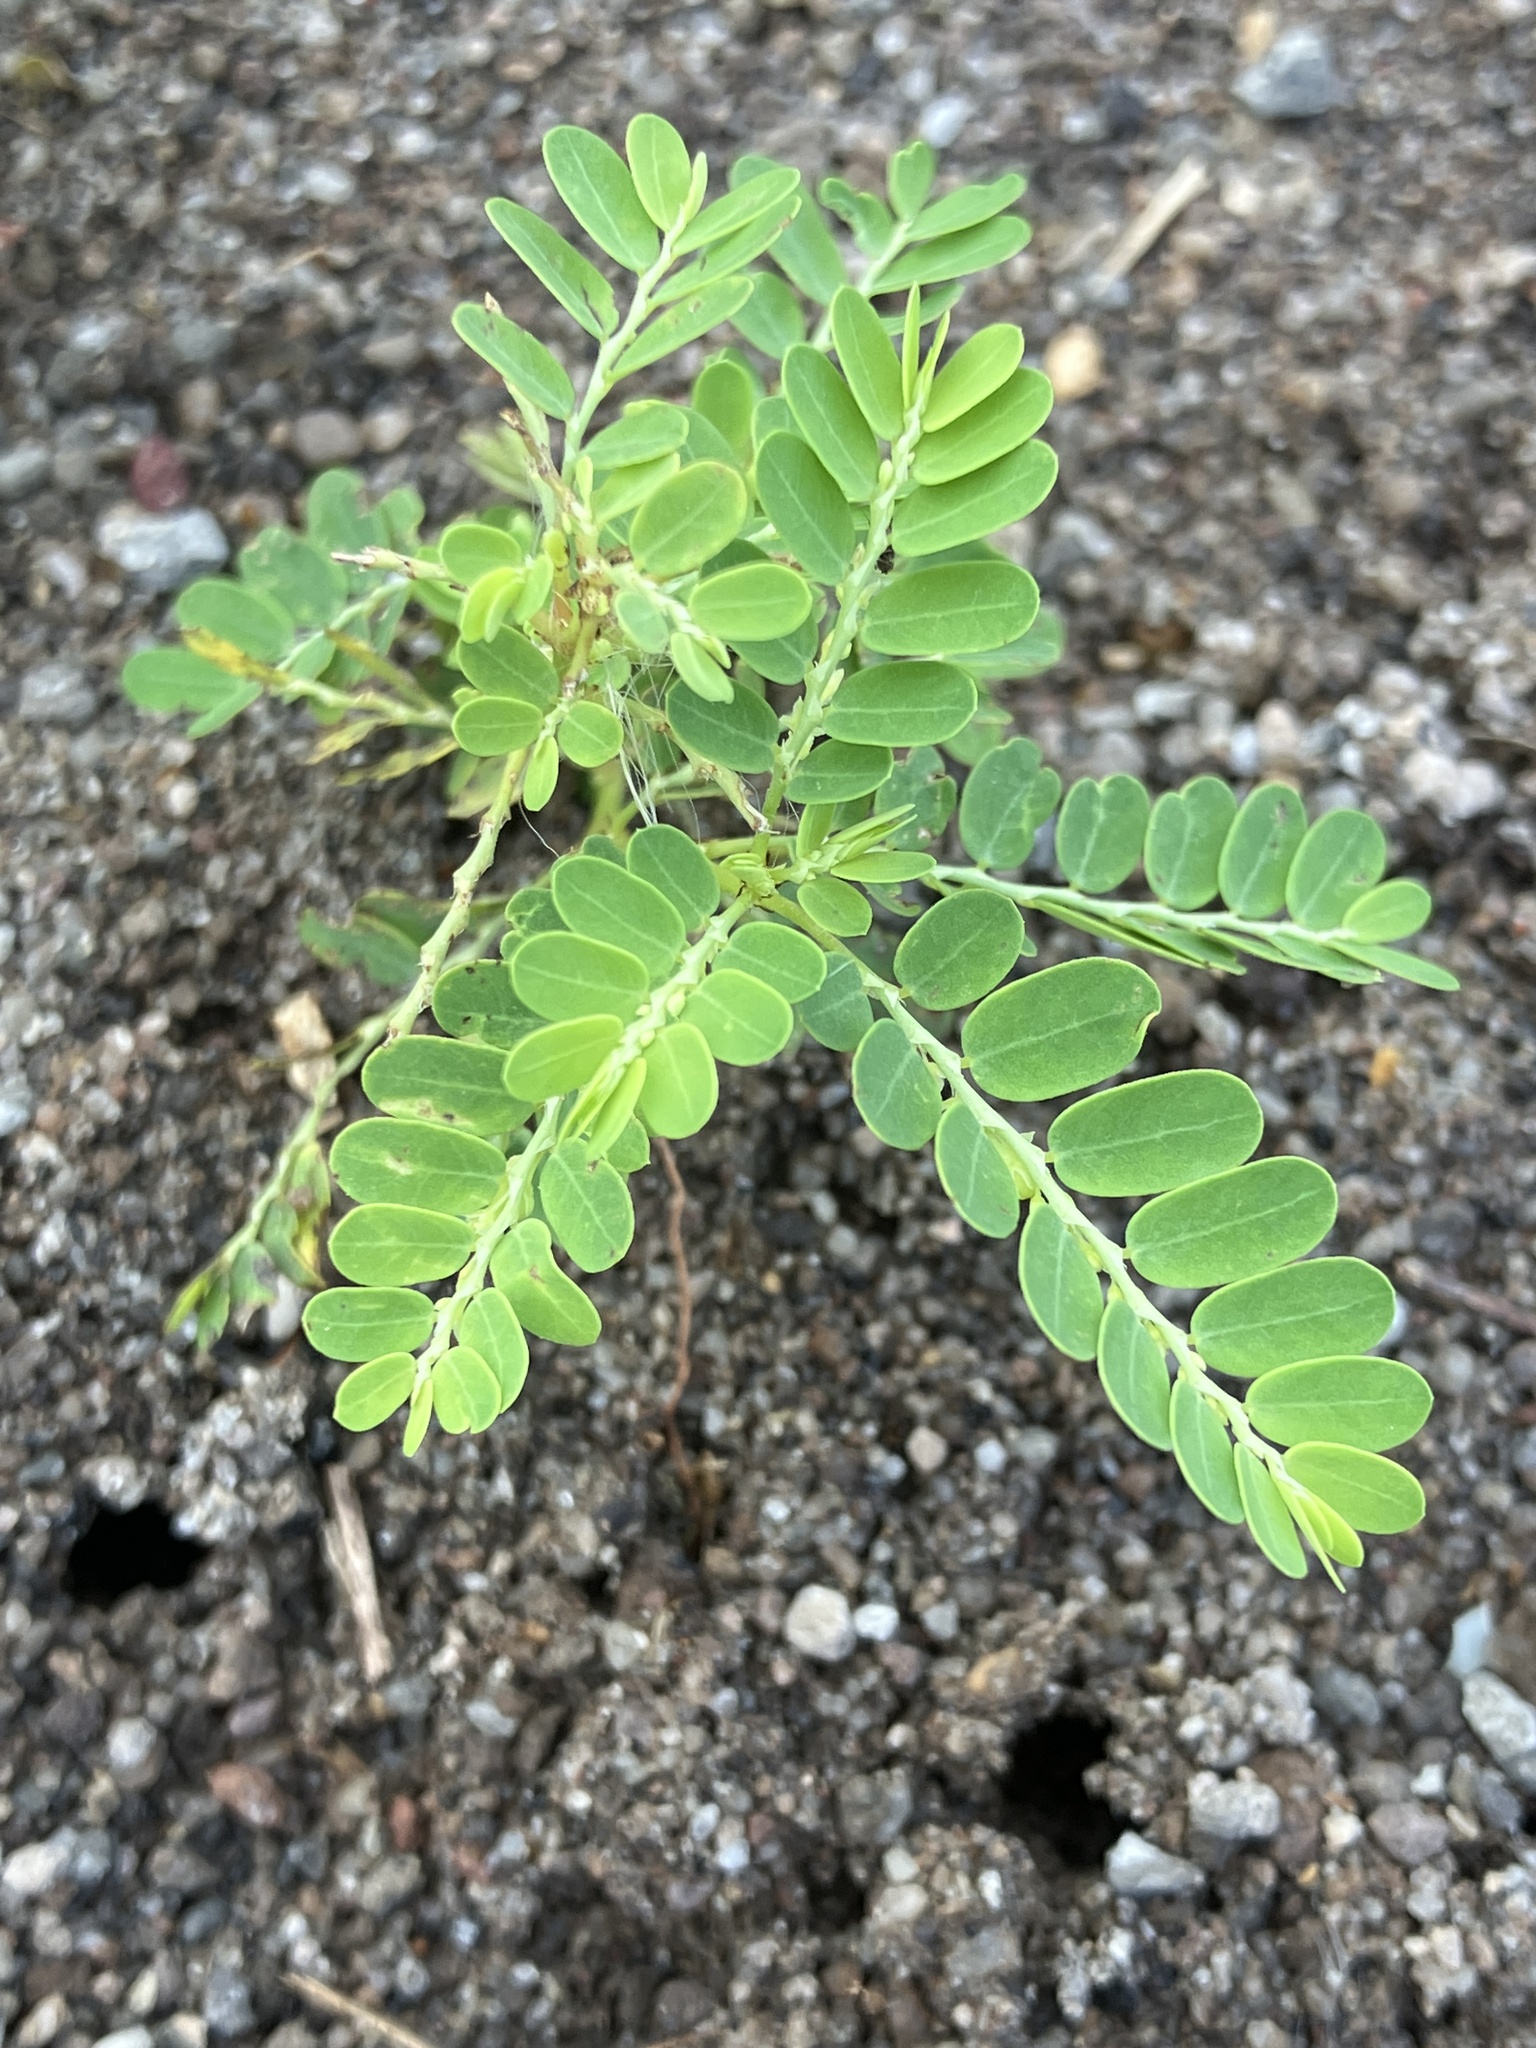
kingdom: Plantae
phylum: Tracheophyta
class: Magnoliopsida
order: Malpighiales
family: Phyllanthaceae
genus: Phyllanthus
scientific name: Phyllanthus amarus
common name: Carry me seed
